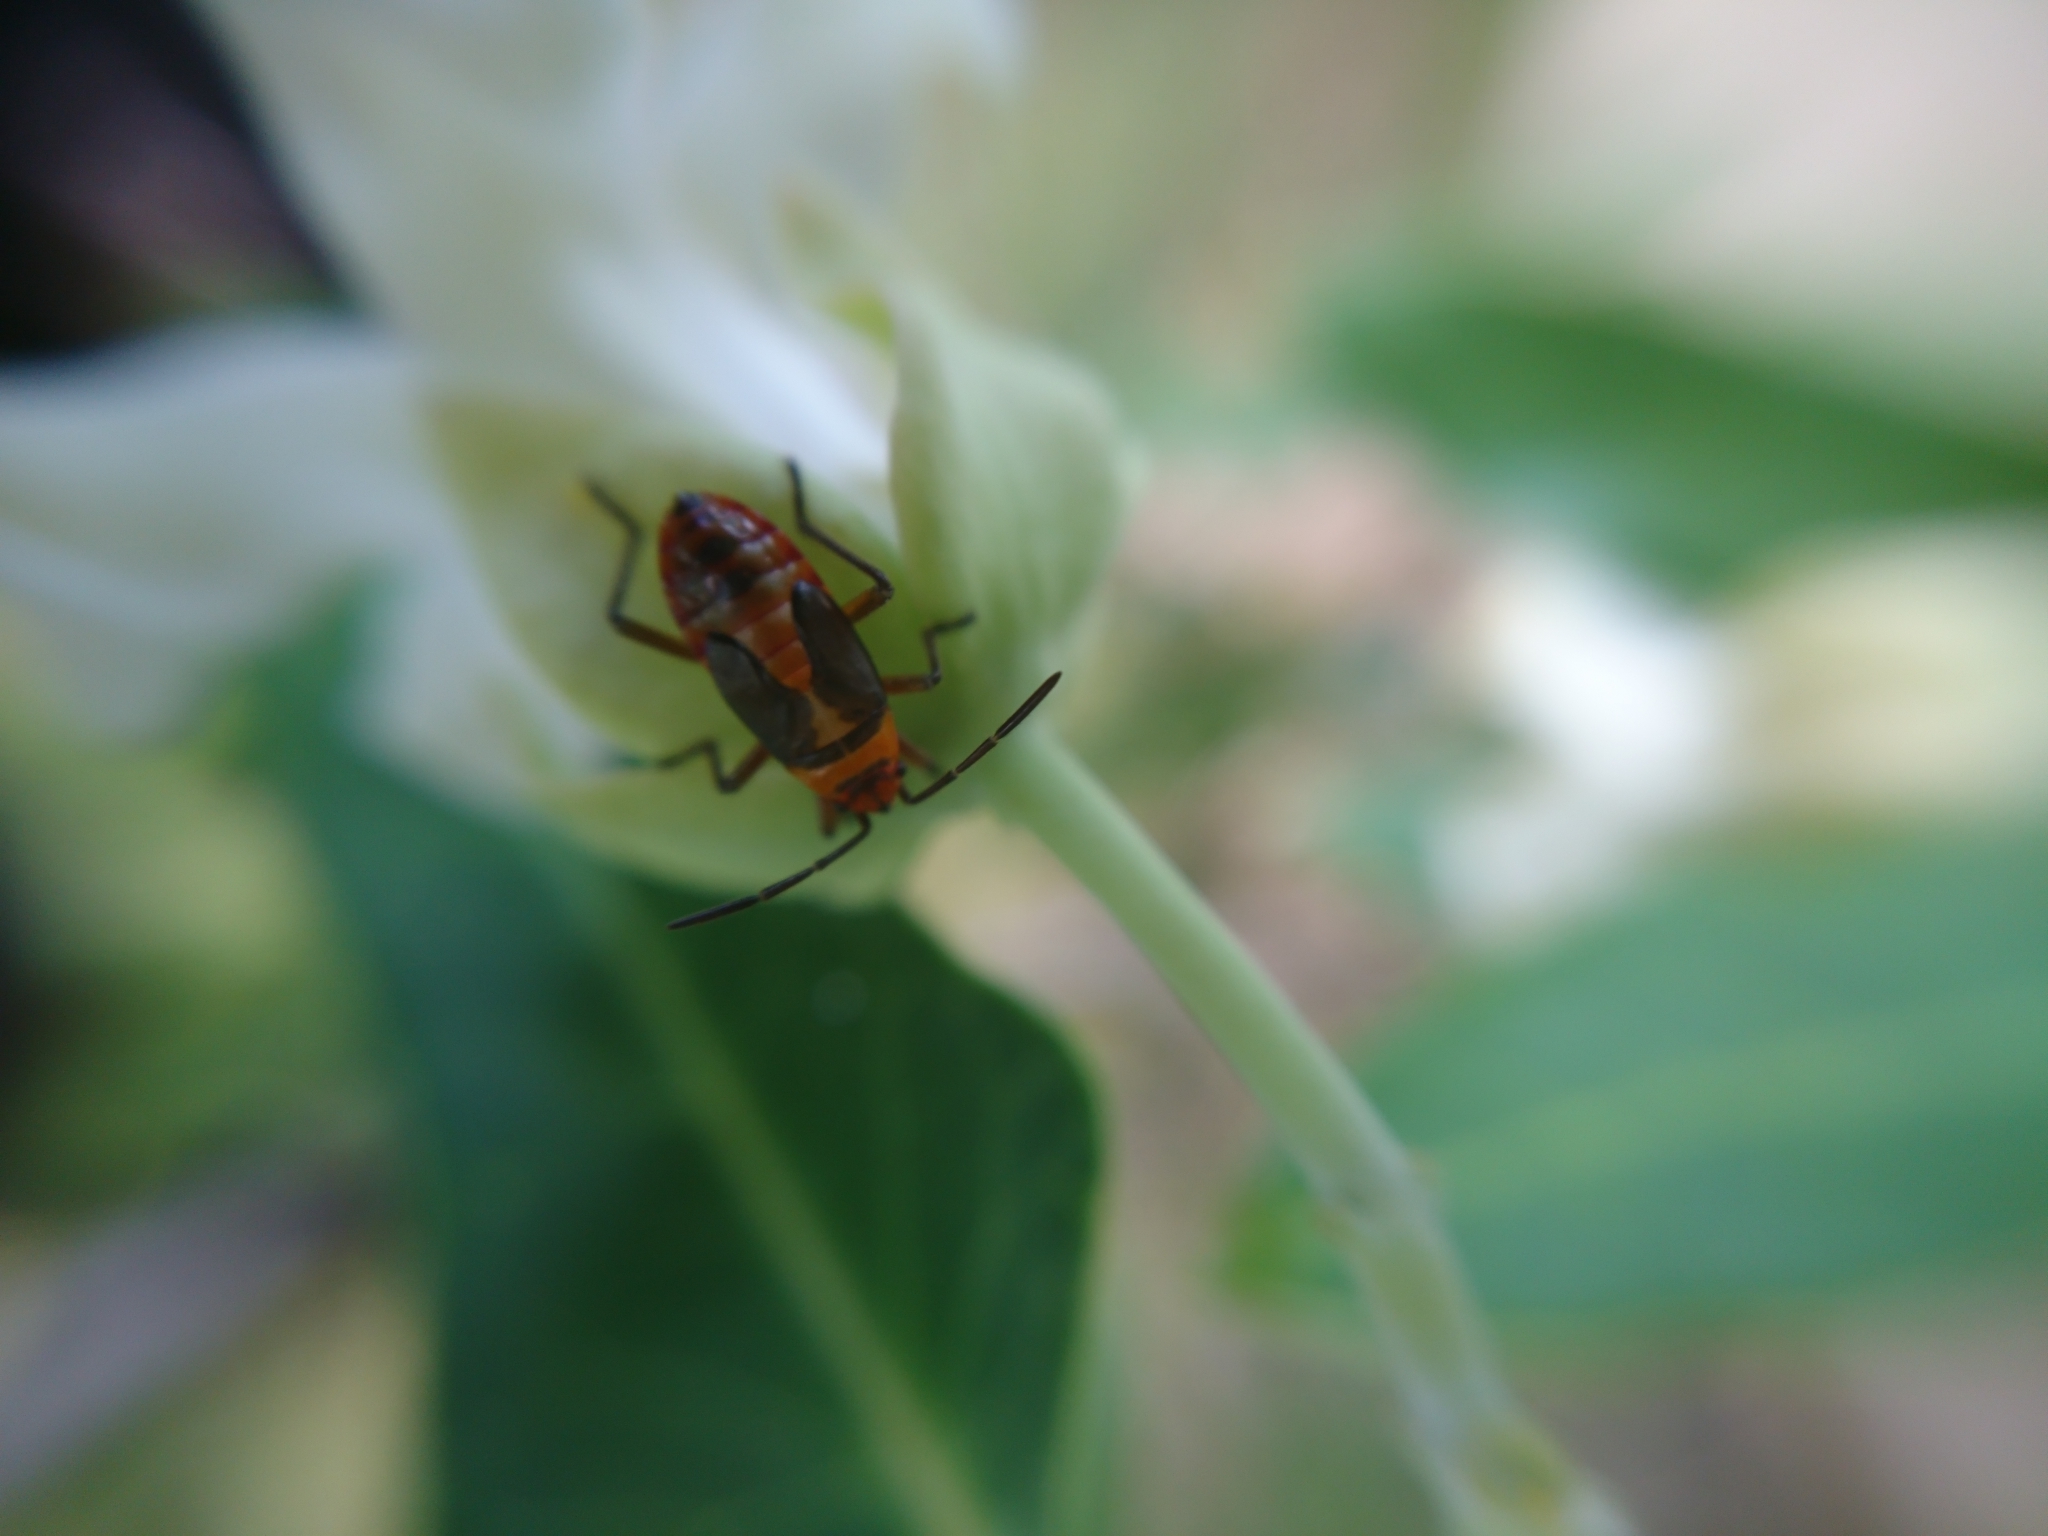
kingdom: Animalia
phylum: Arthropoda
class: Insecta
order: Hemiptera
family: Lygaeidae
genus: Oncopeltus
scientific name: Oncopeltus unifasciatellus
